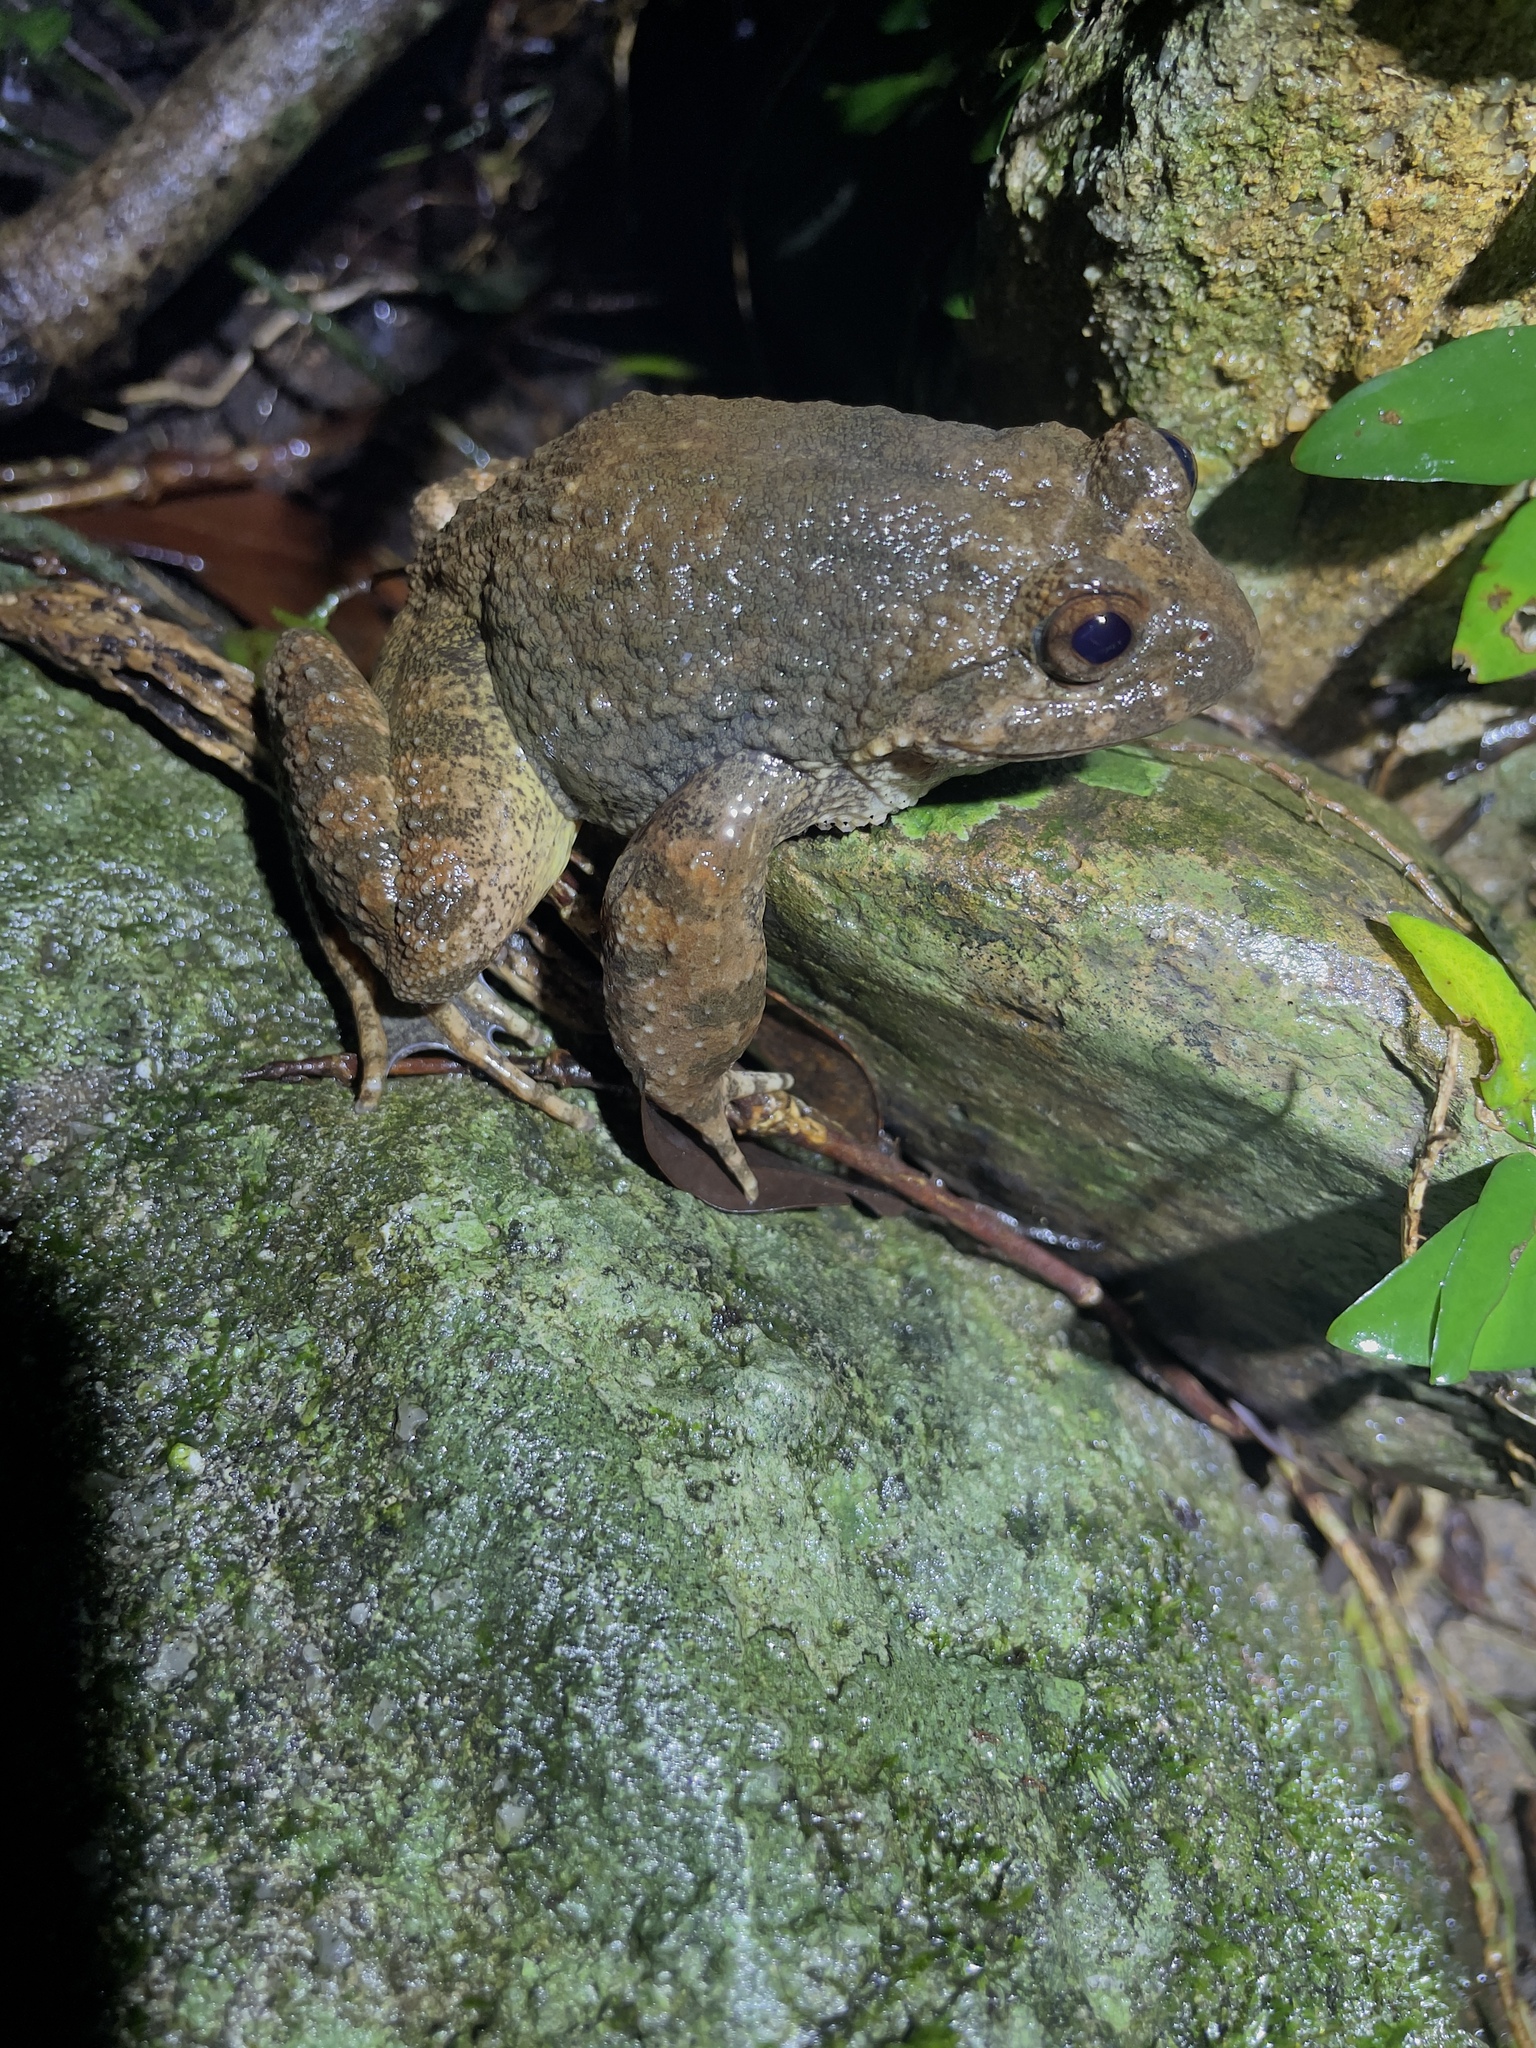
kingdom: Animalia
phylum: Chordata
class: Amphibia
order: Anura
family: Dicroglossidae
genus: Quasipaa
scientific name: Quasipaa exilispinosa
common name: Hong kong paa frog
